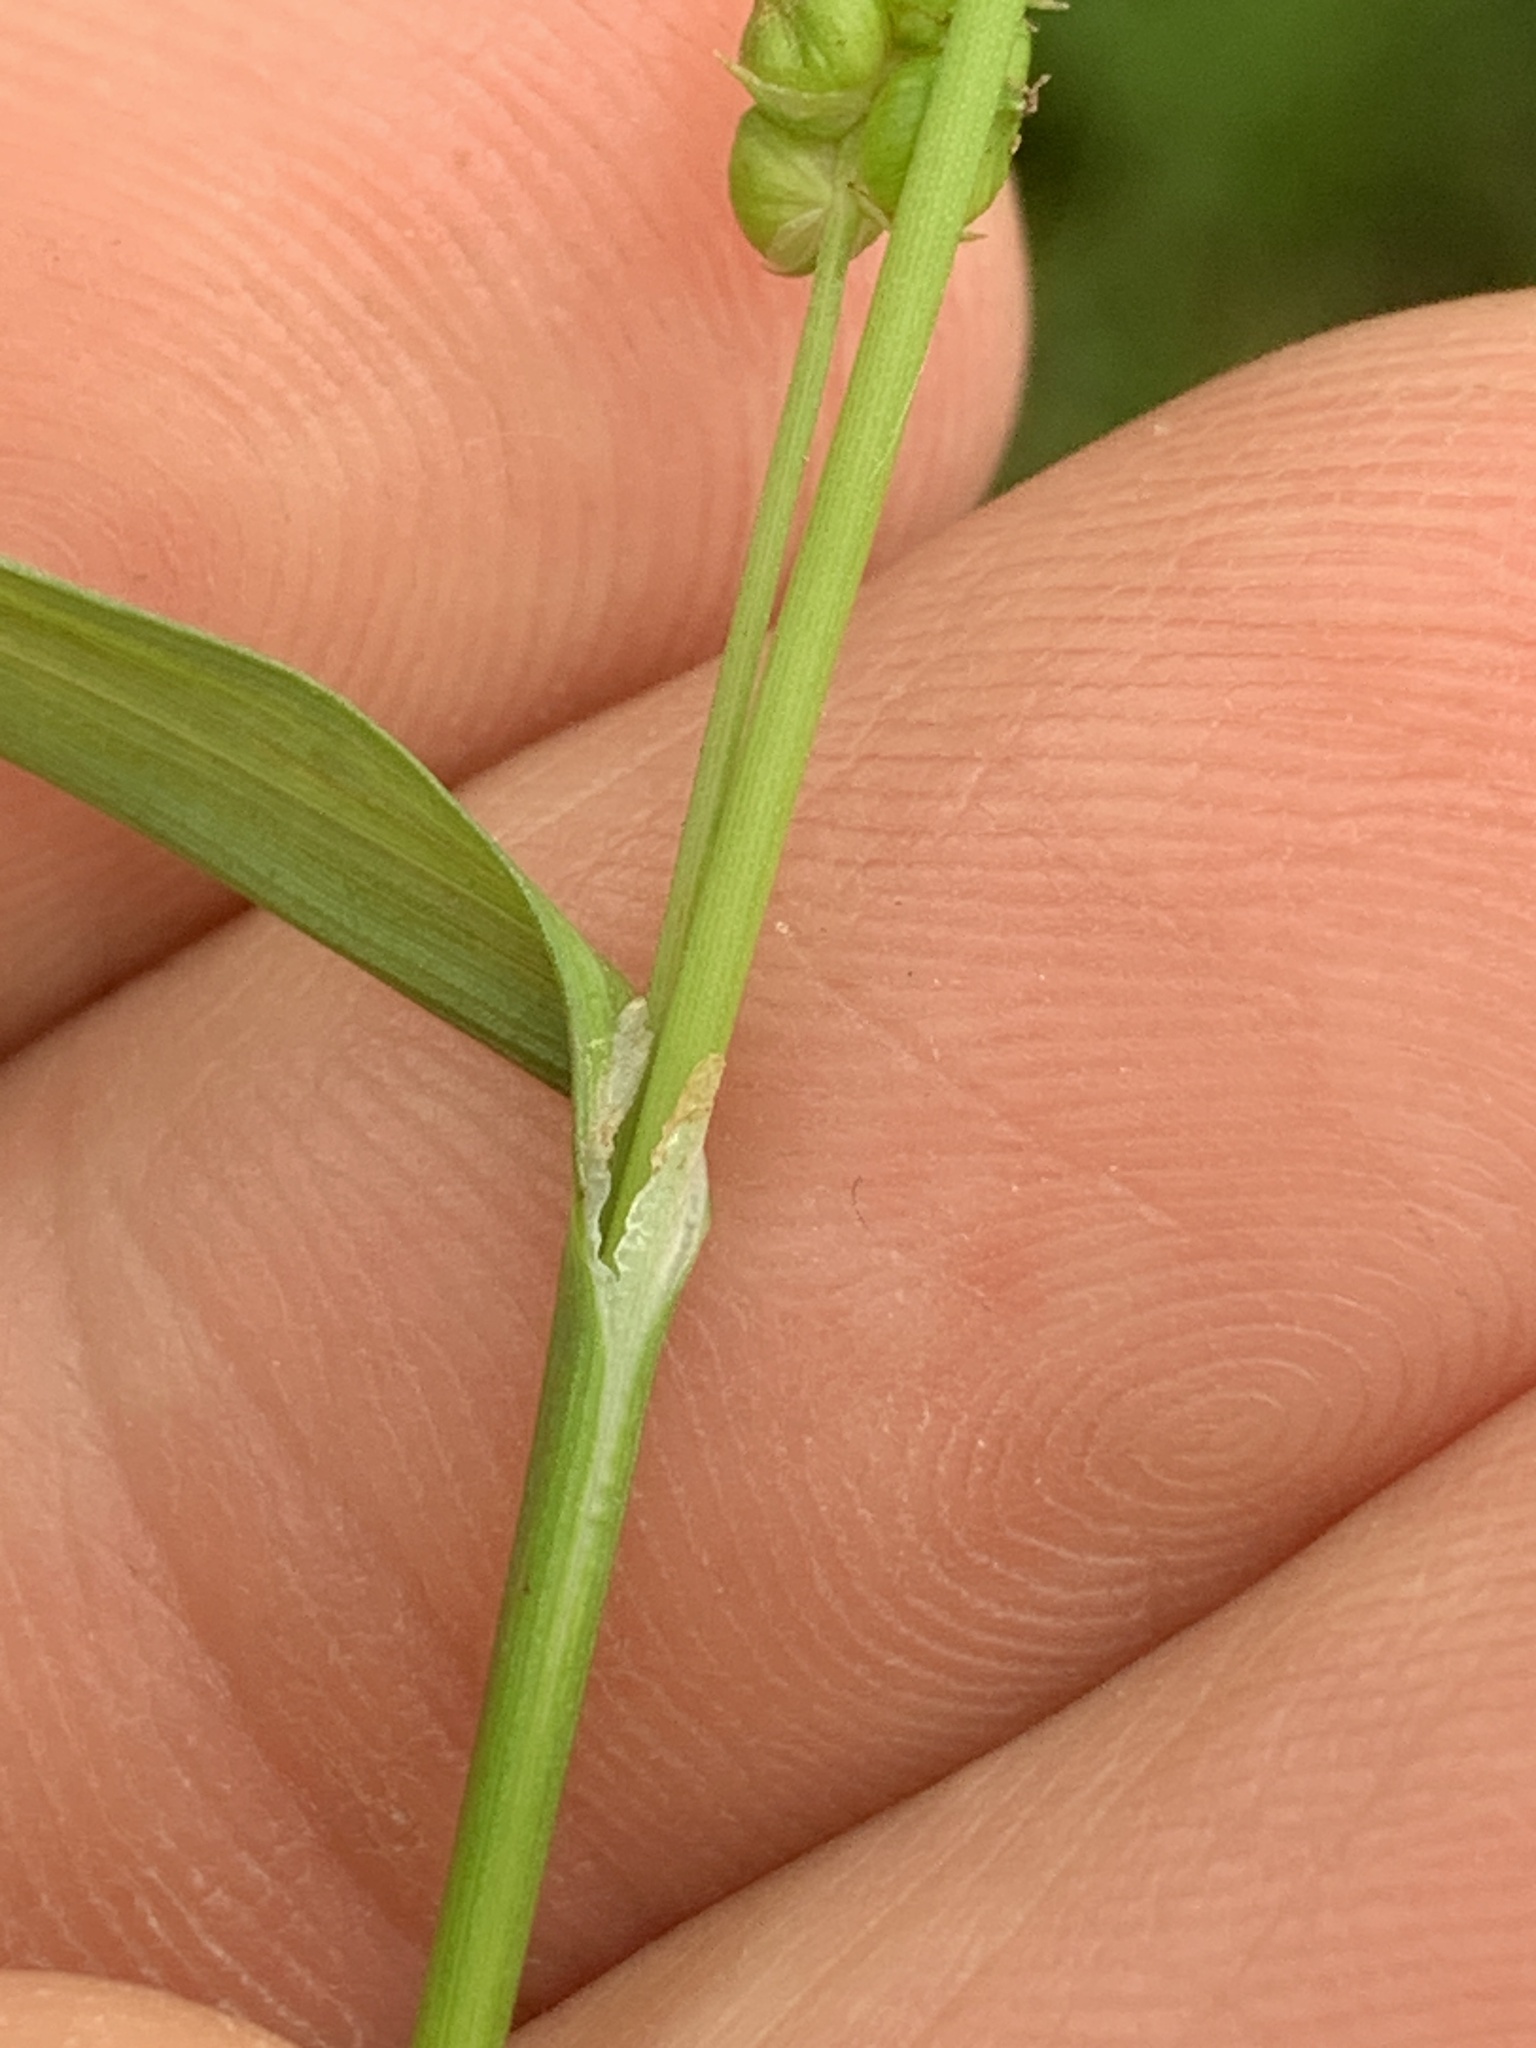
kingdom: Plantae
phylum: Tracheophyta
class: Liliopsida
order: Poales
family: Cyperaceae
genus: Carex
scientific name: Carex granularis
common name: Granular sedge
